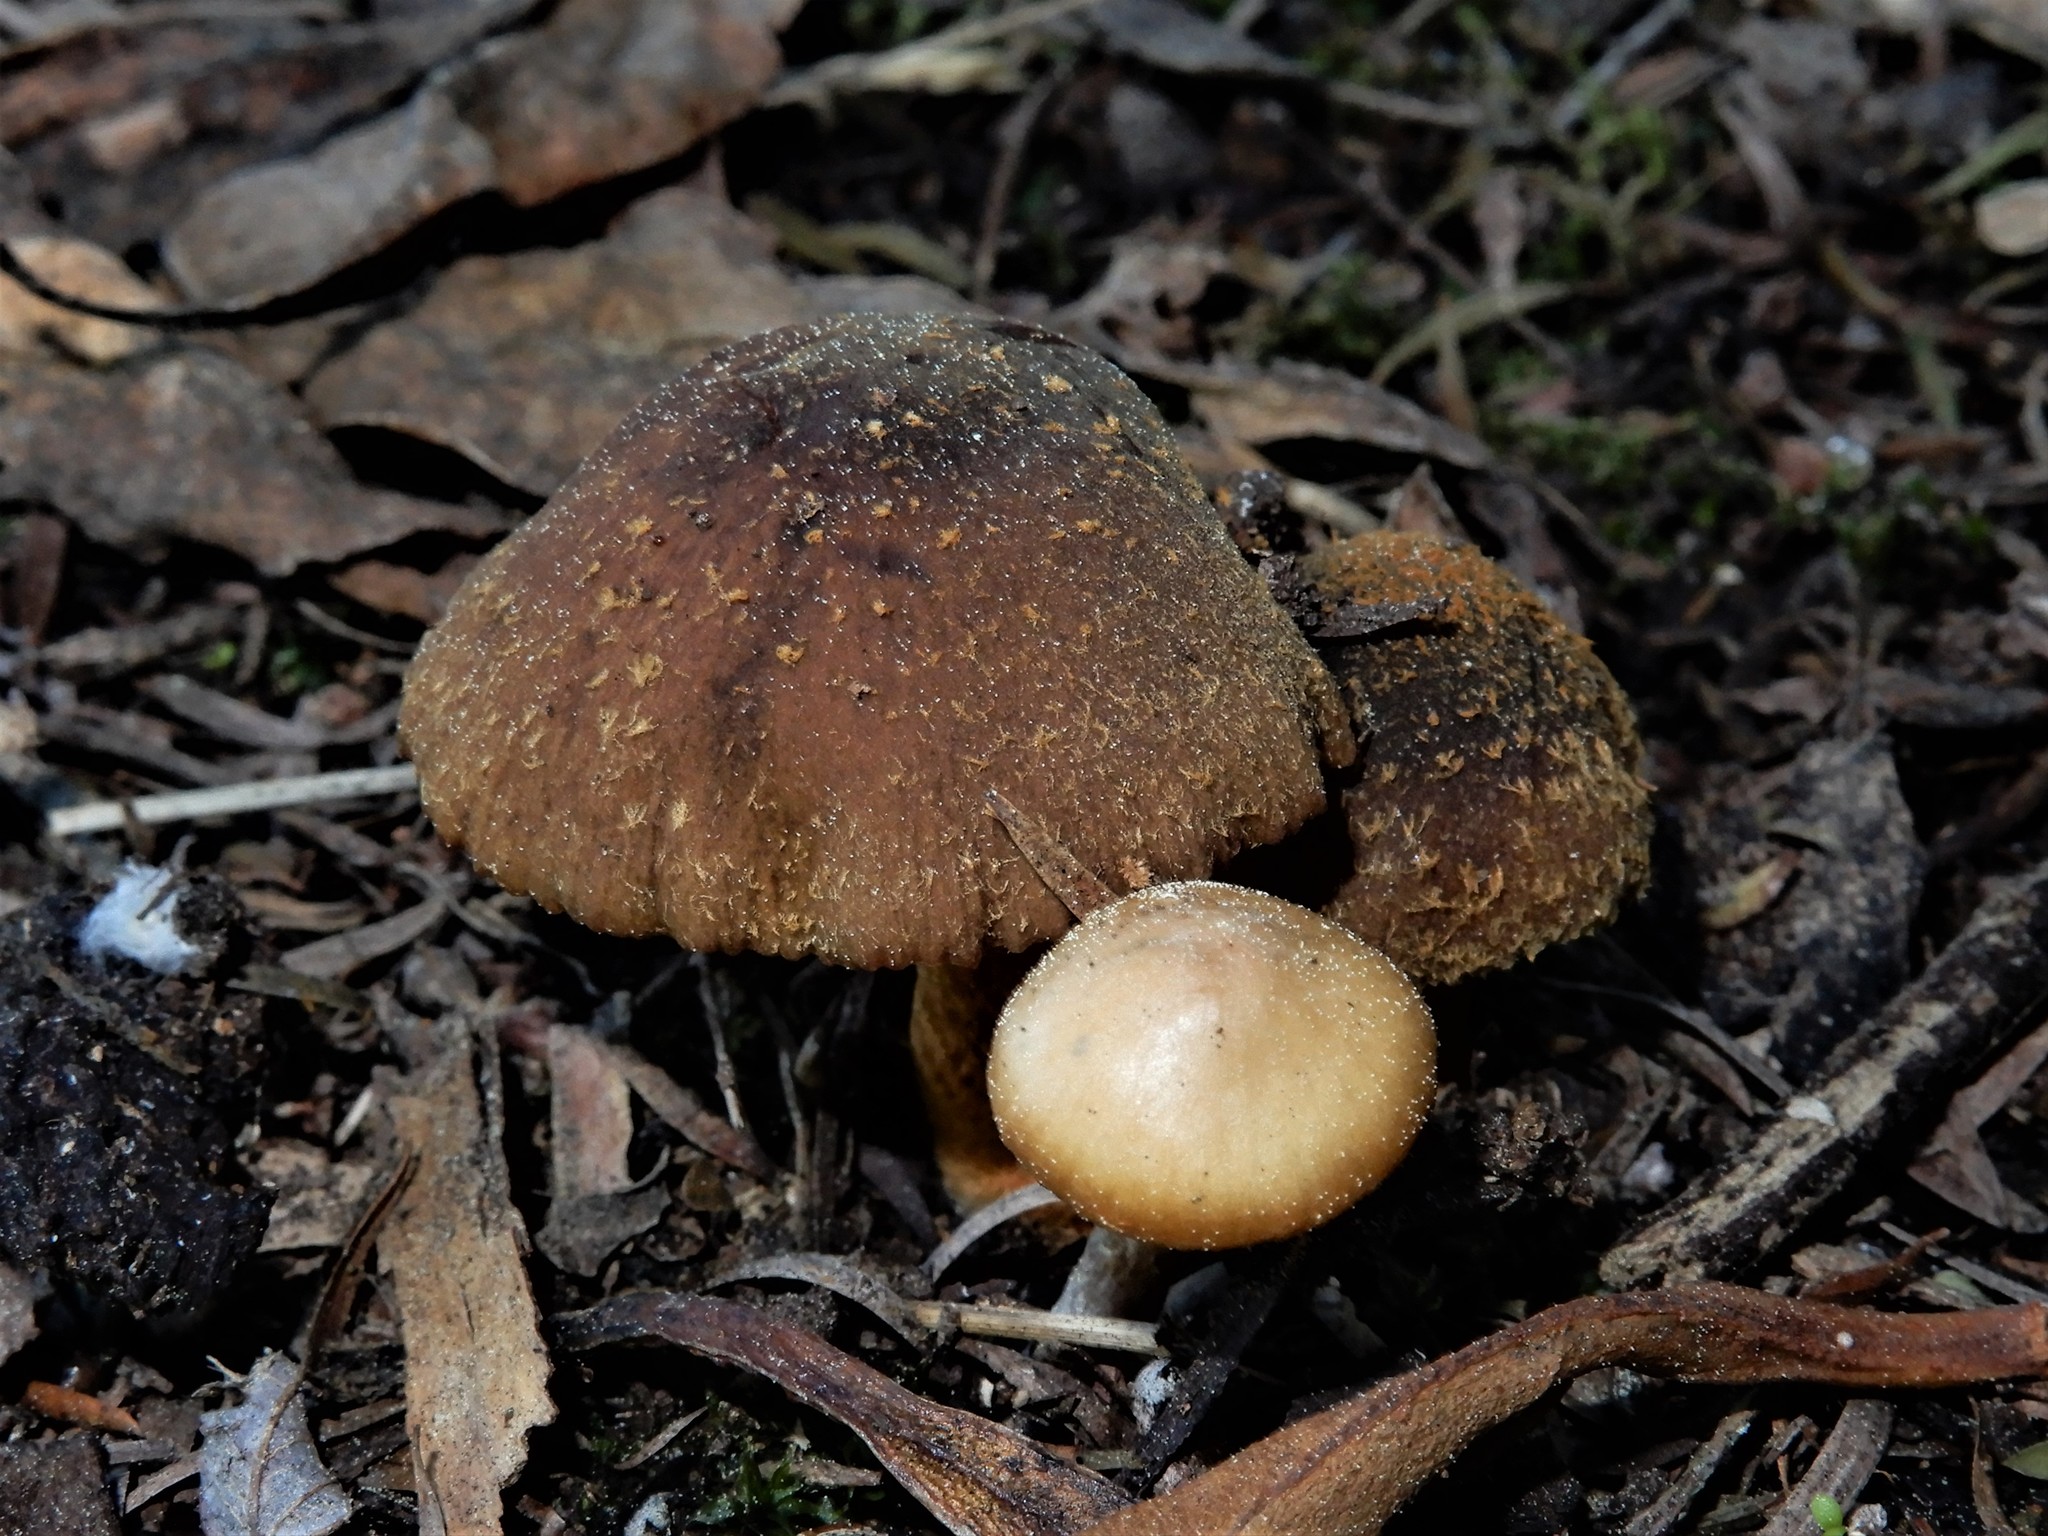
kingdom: Fungi
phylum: Basidiomycota
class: Agaricomycetes
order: Agaricales
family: Bolbitiaceae
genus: Descolea
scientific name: Descolea
